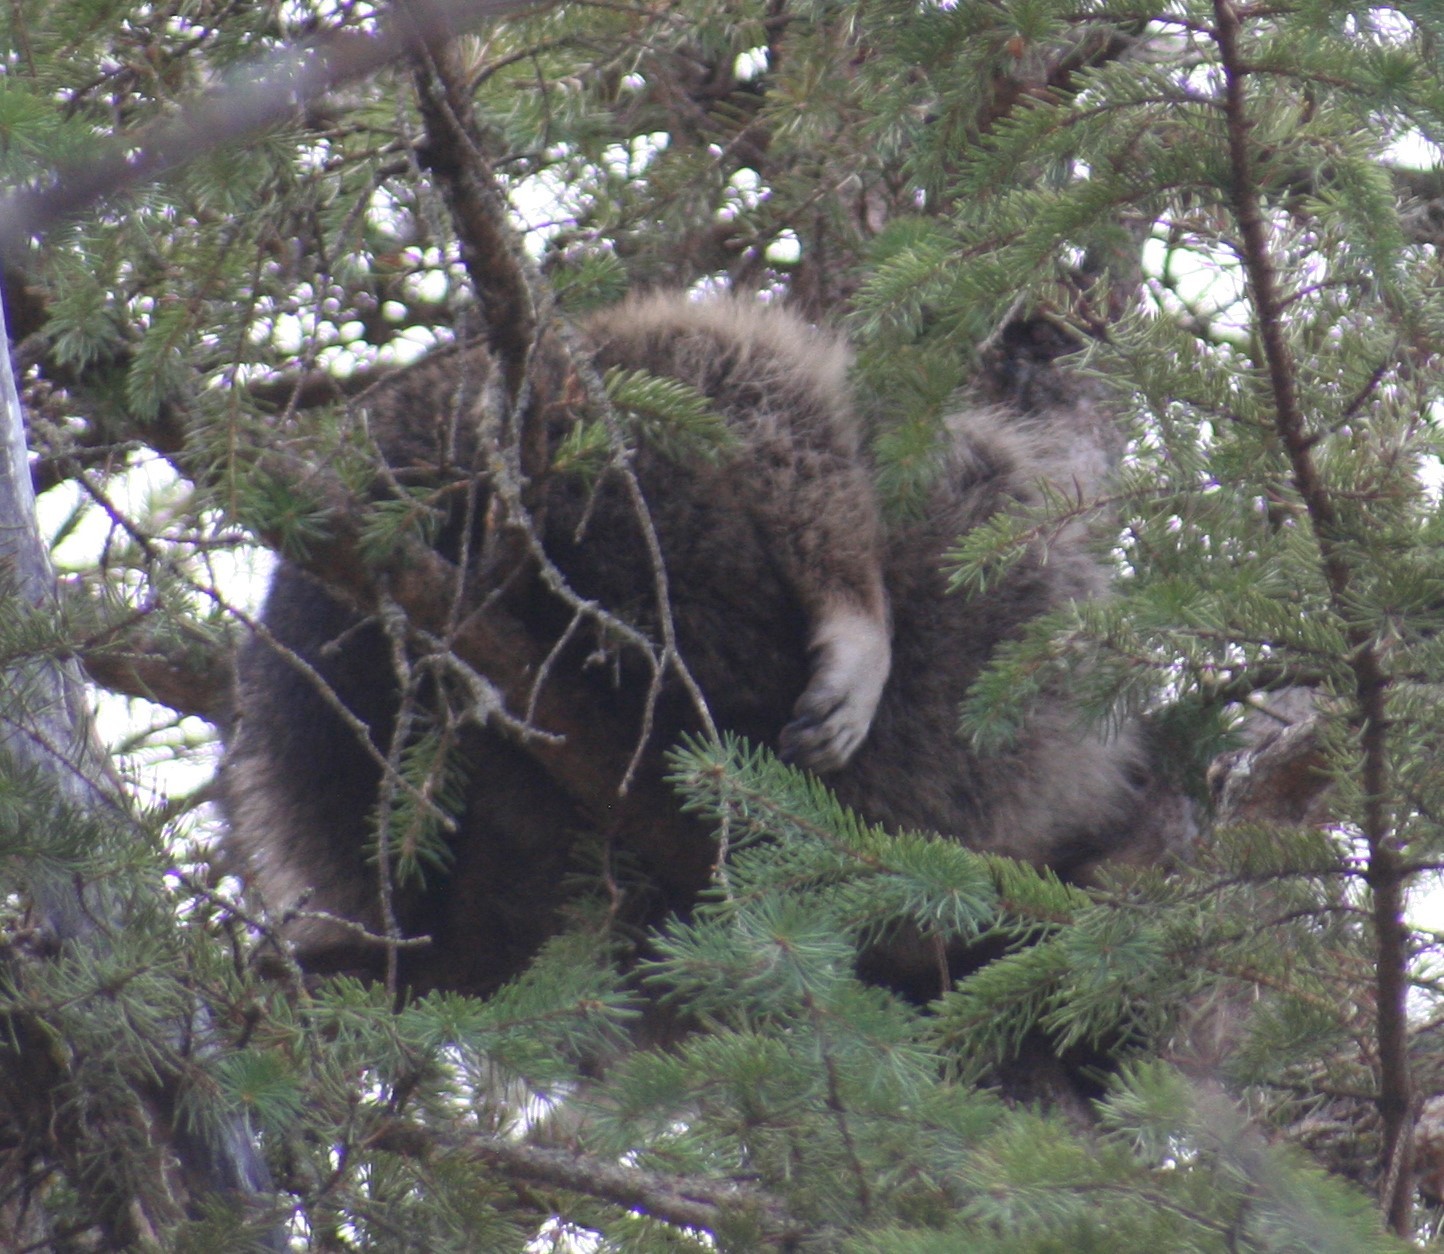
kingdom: Animalia
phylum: Chordata
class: Mammalia
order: Carnivora
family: Procyonidae
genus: Procyon
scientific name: Procyon lotor
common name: Raccoon
